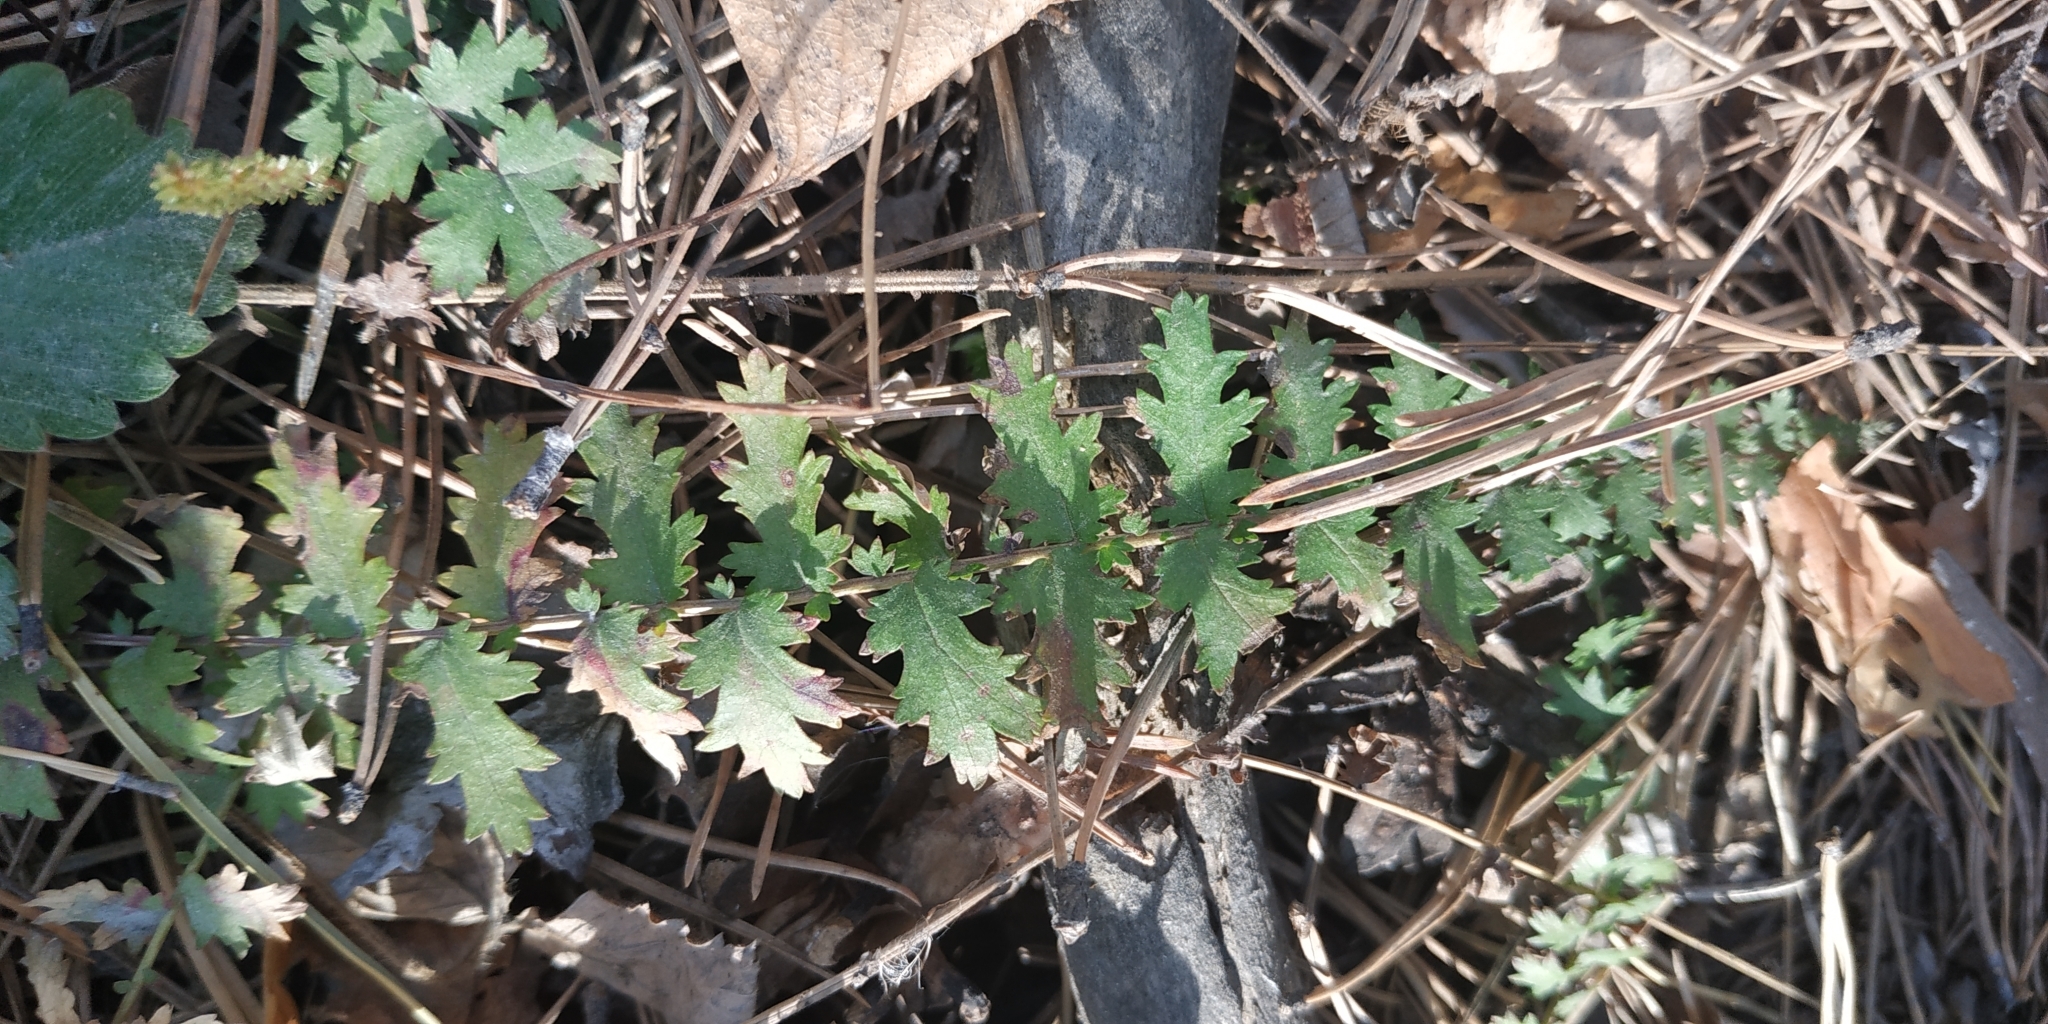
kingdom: Plantae
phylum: Tracheophyta
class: Magnoliopsida
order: Rosales
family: Rosaceae
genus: Filipendula
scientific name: Filipendula vulgaris
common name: Dropwort
